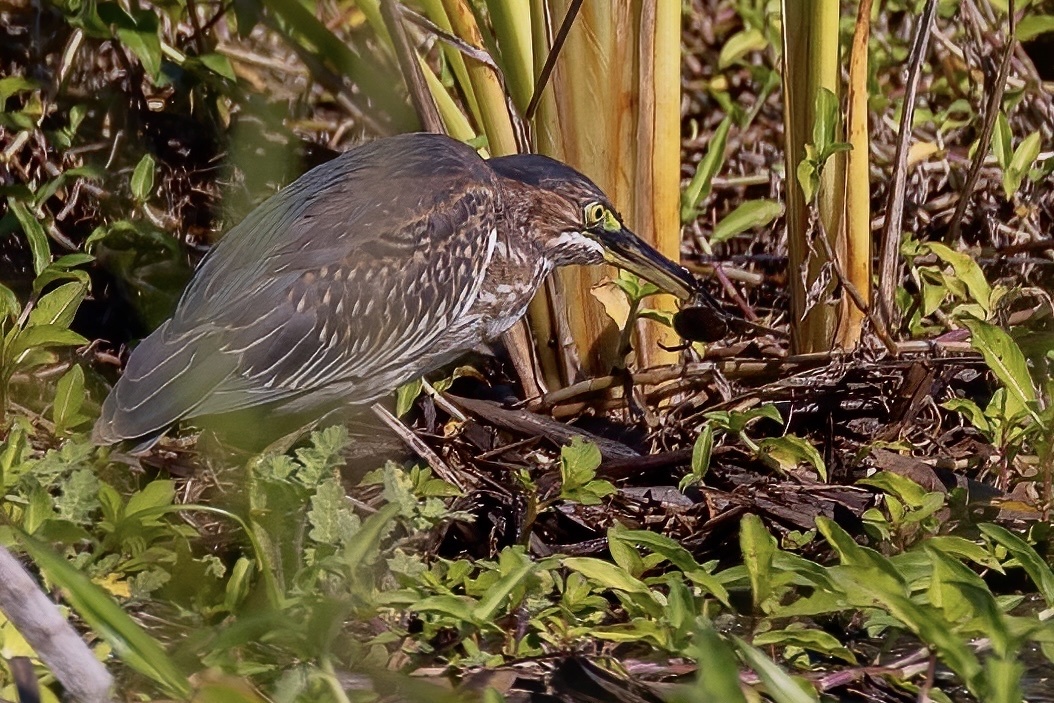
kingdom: Animalia
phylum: Chordata
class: Aves
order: Pelecaniformes
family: Ardeidae
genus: Butorides
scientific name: Butorides virescens
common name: Green heron
